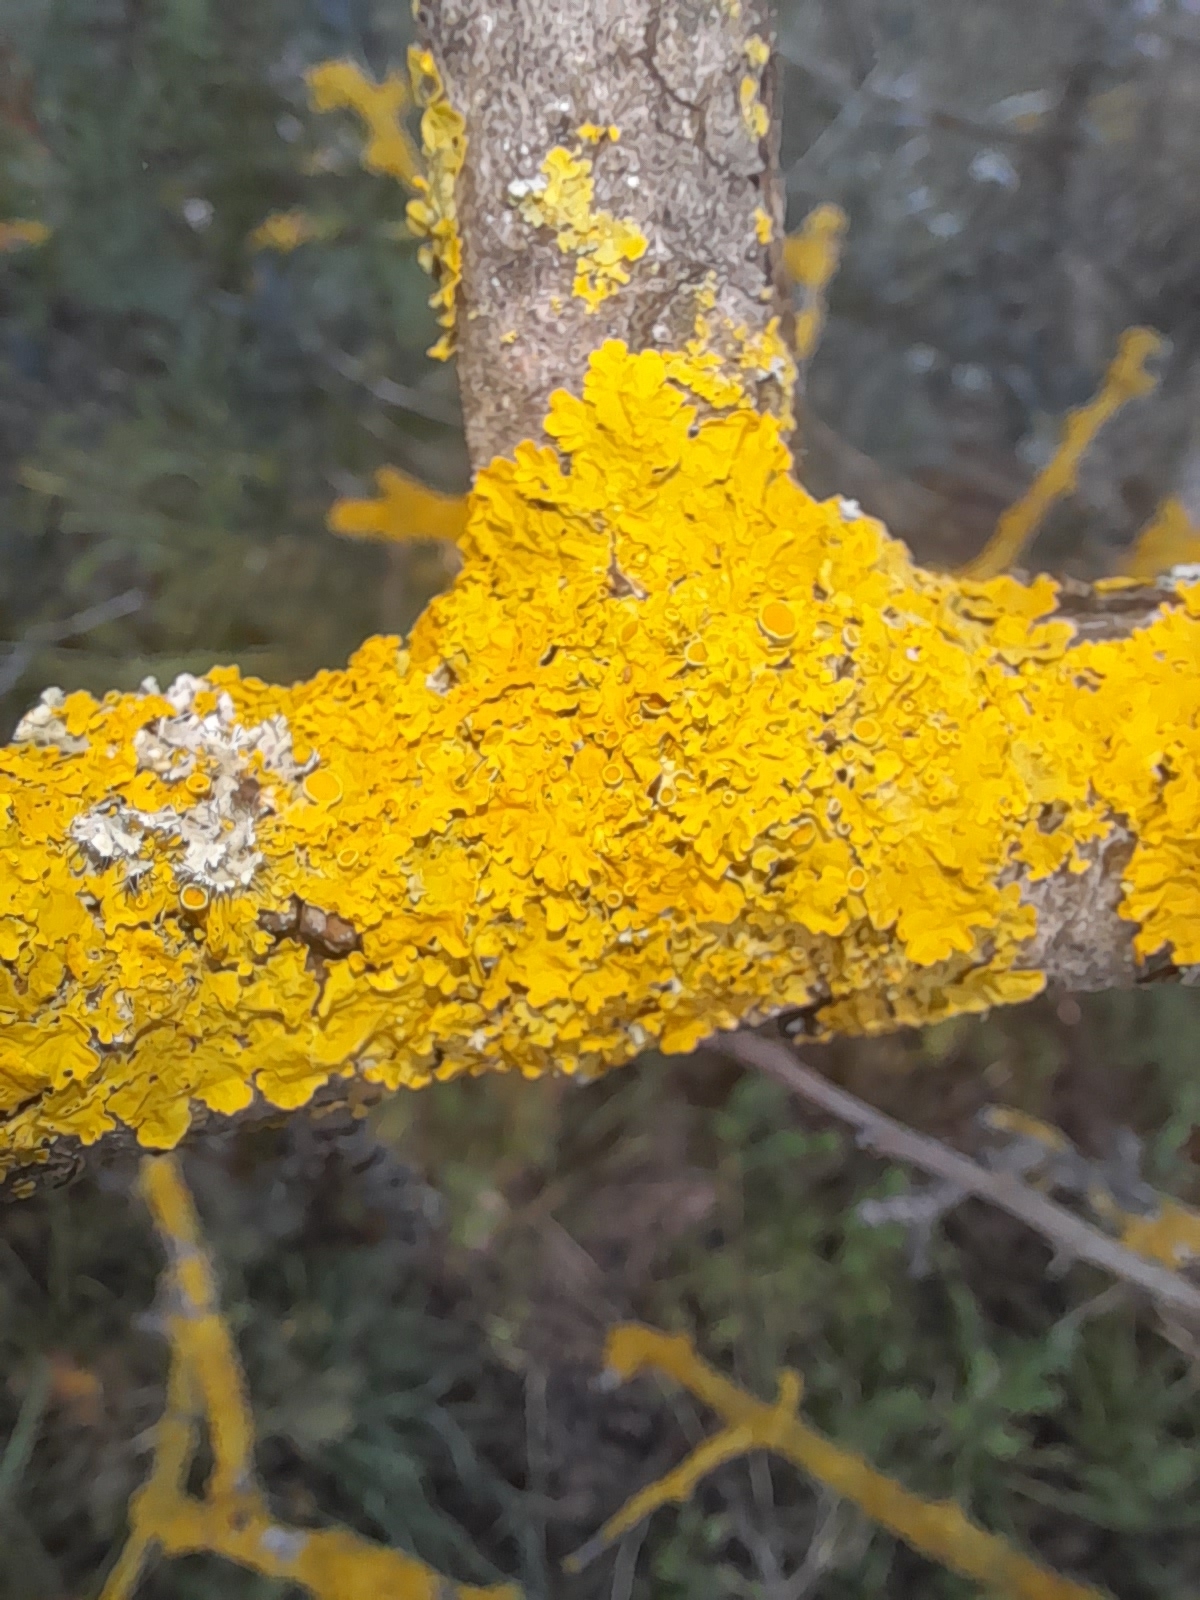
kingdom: Fungi
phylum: Ascomycota
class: Lecanoromycetes
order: Teloschistales
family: Teloschistaceae
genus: Xanthoria
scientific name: Xanthoria parietina
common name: Common orange lichen
